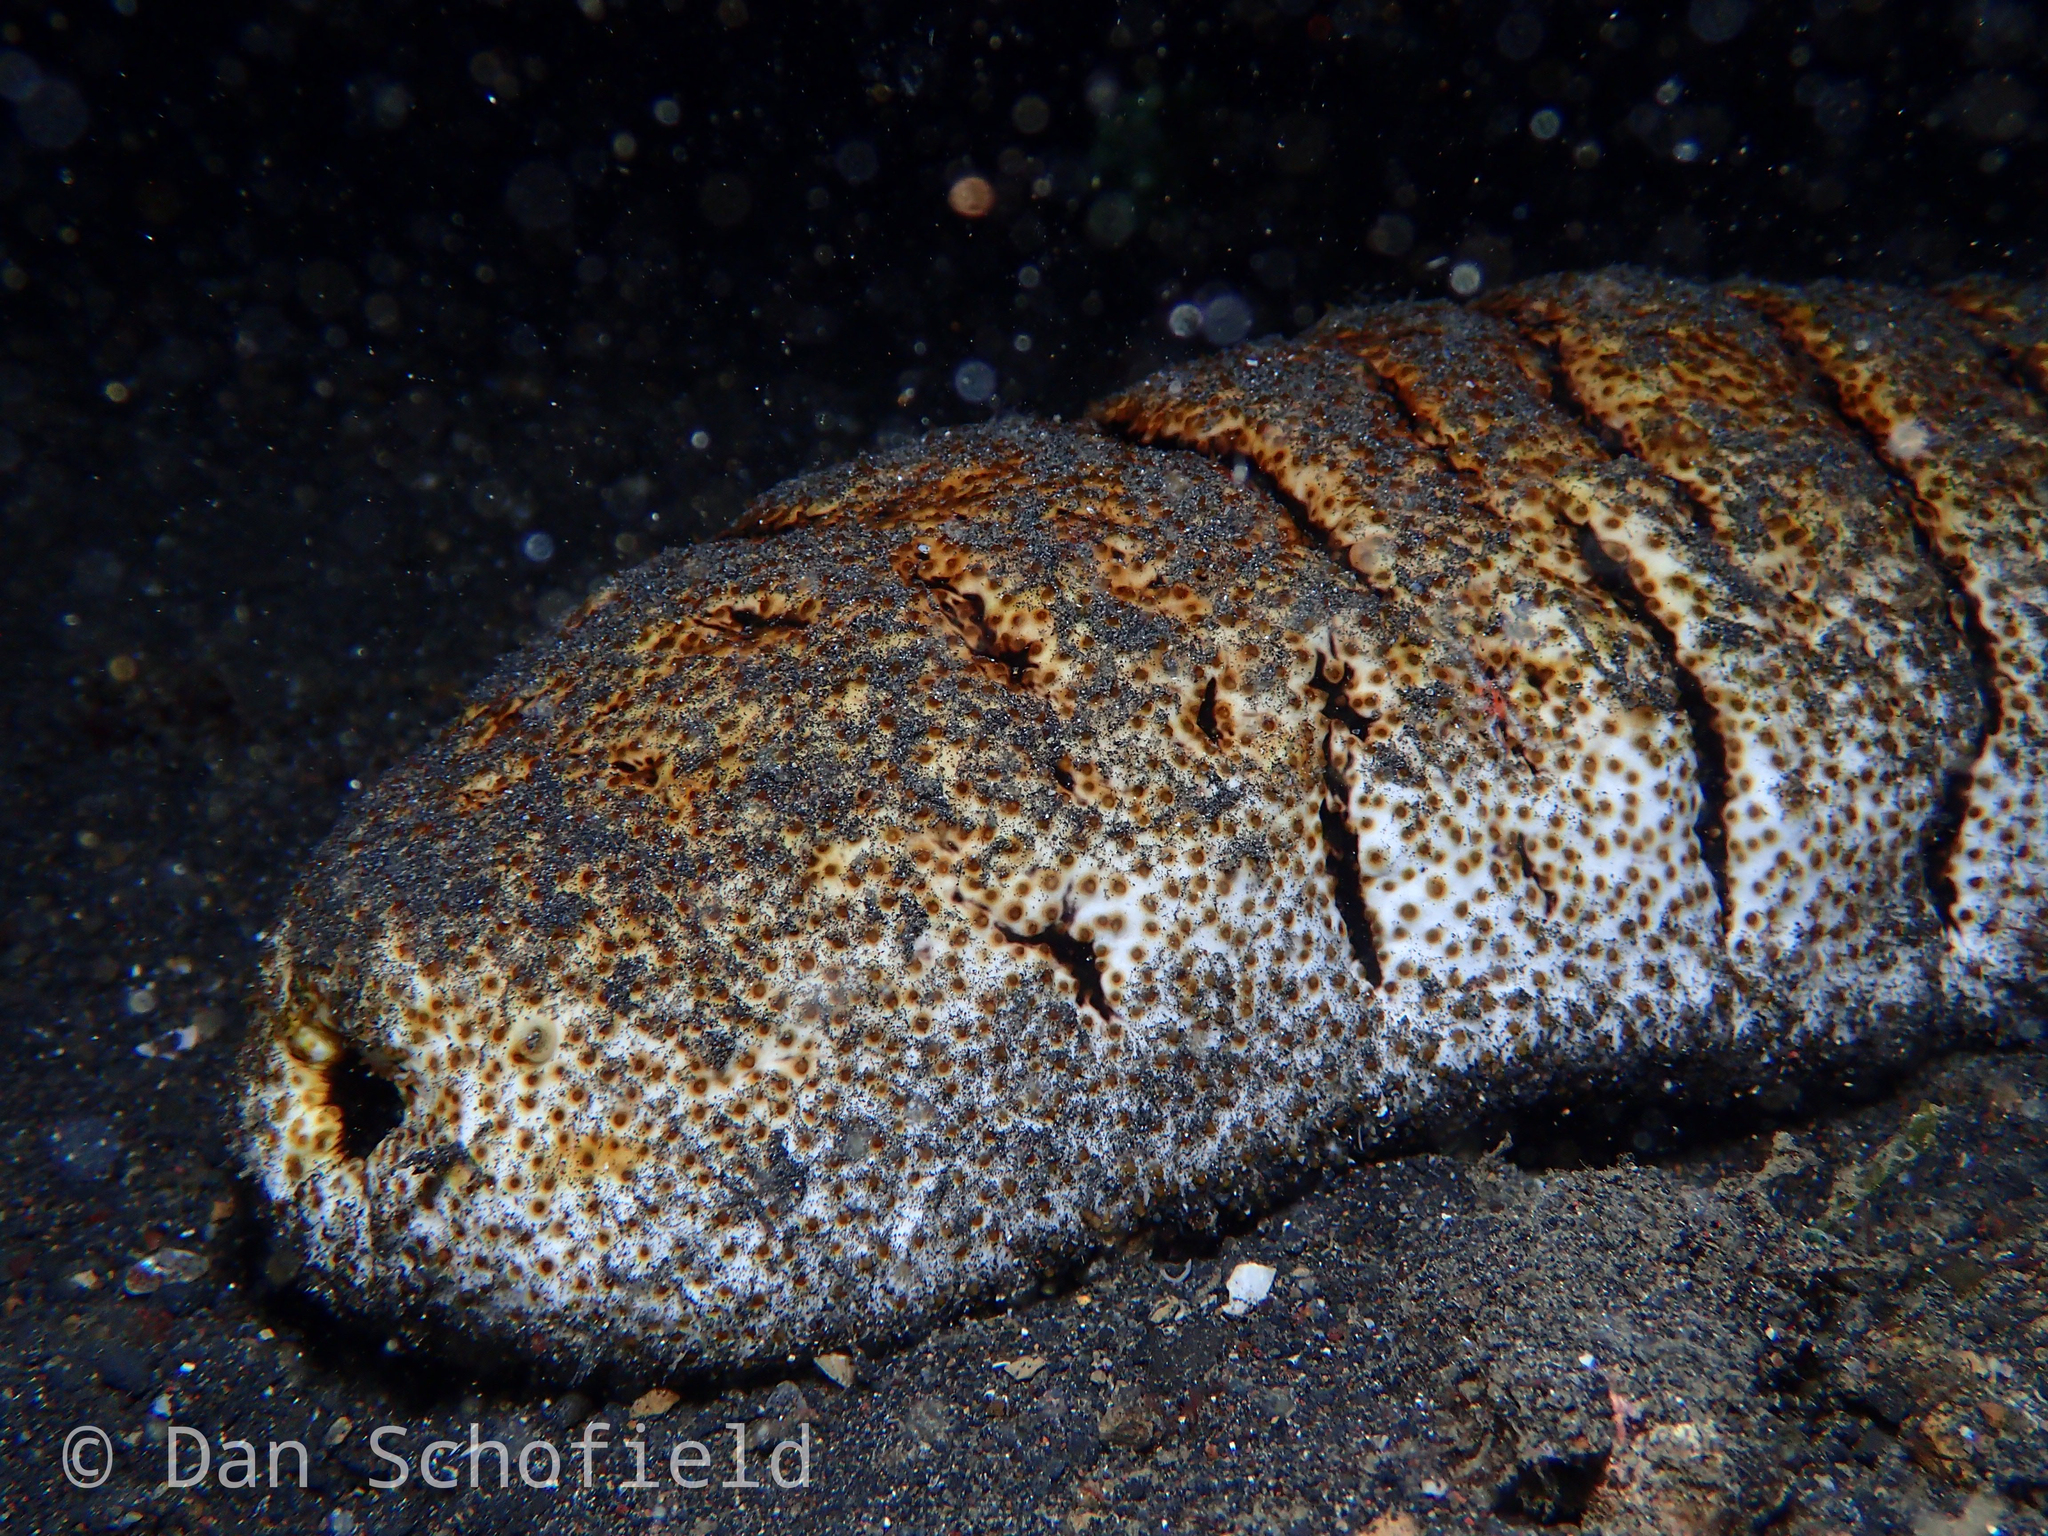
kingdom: Animalia
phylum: Echinodermata
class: Holothuroidea
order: Holothuriida
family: Holothuriidae
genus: Holothuria
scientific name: Holothuria fuscopunctata
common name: Elephant trunkfish
